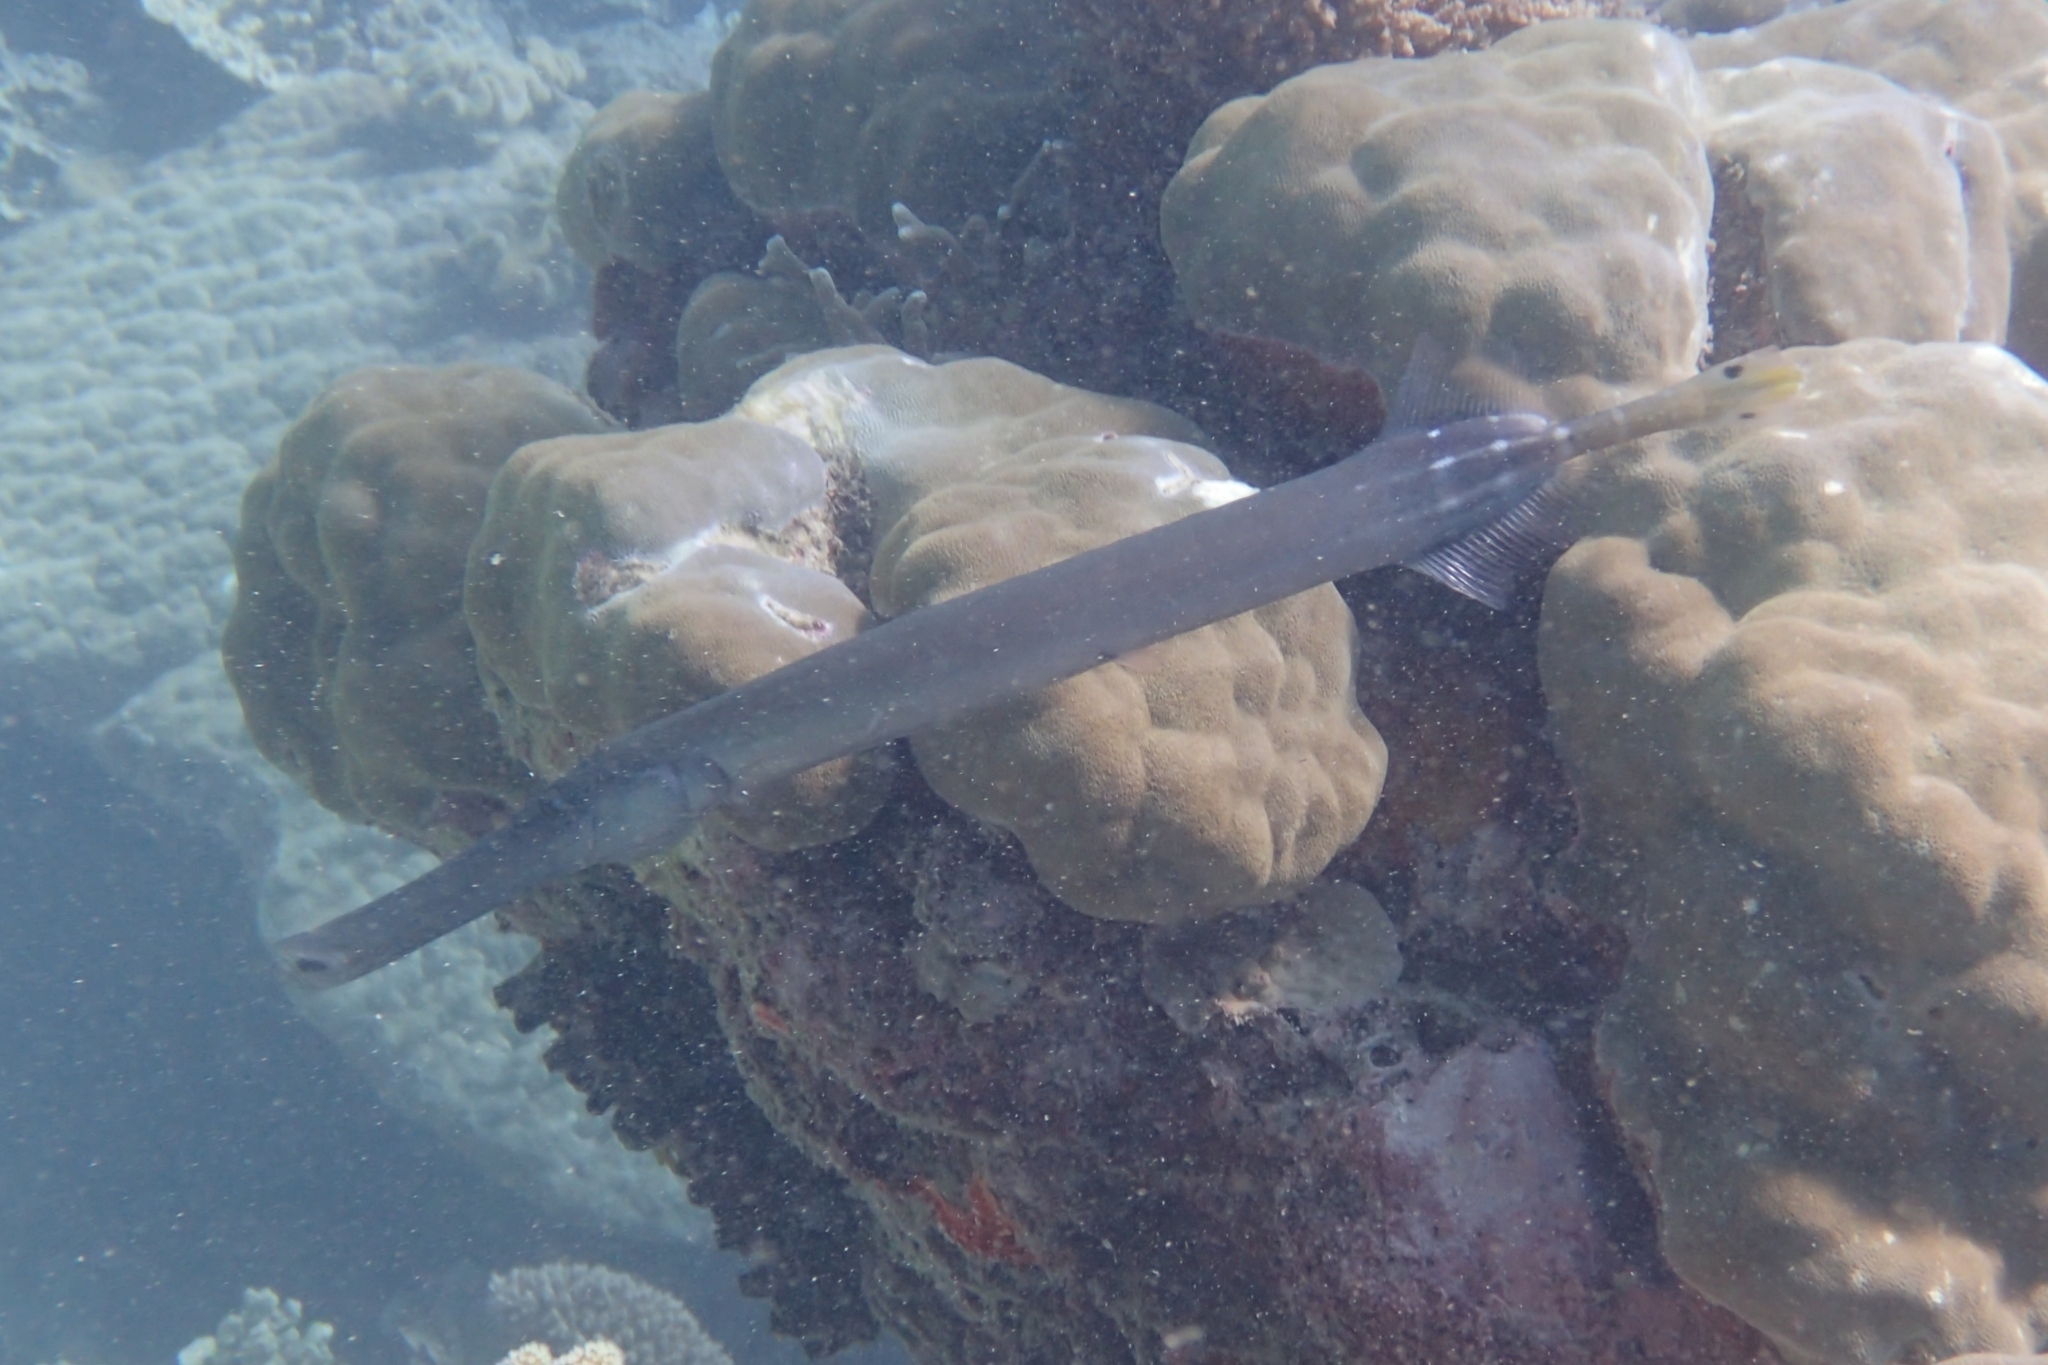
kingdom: Animalia
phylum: Chordata
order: Syngnathiformes
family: Aulostomidae
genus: Aulostomus
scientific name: Aulostomus chinensis
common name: Chinese trumpetfish
